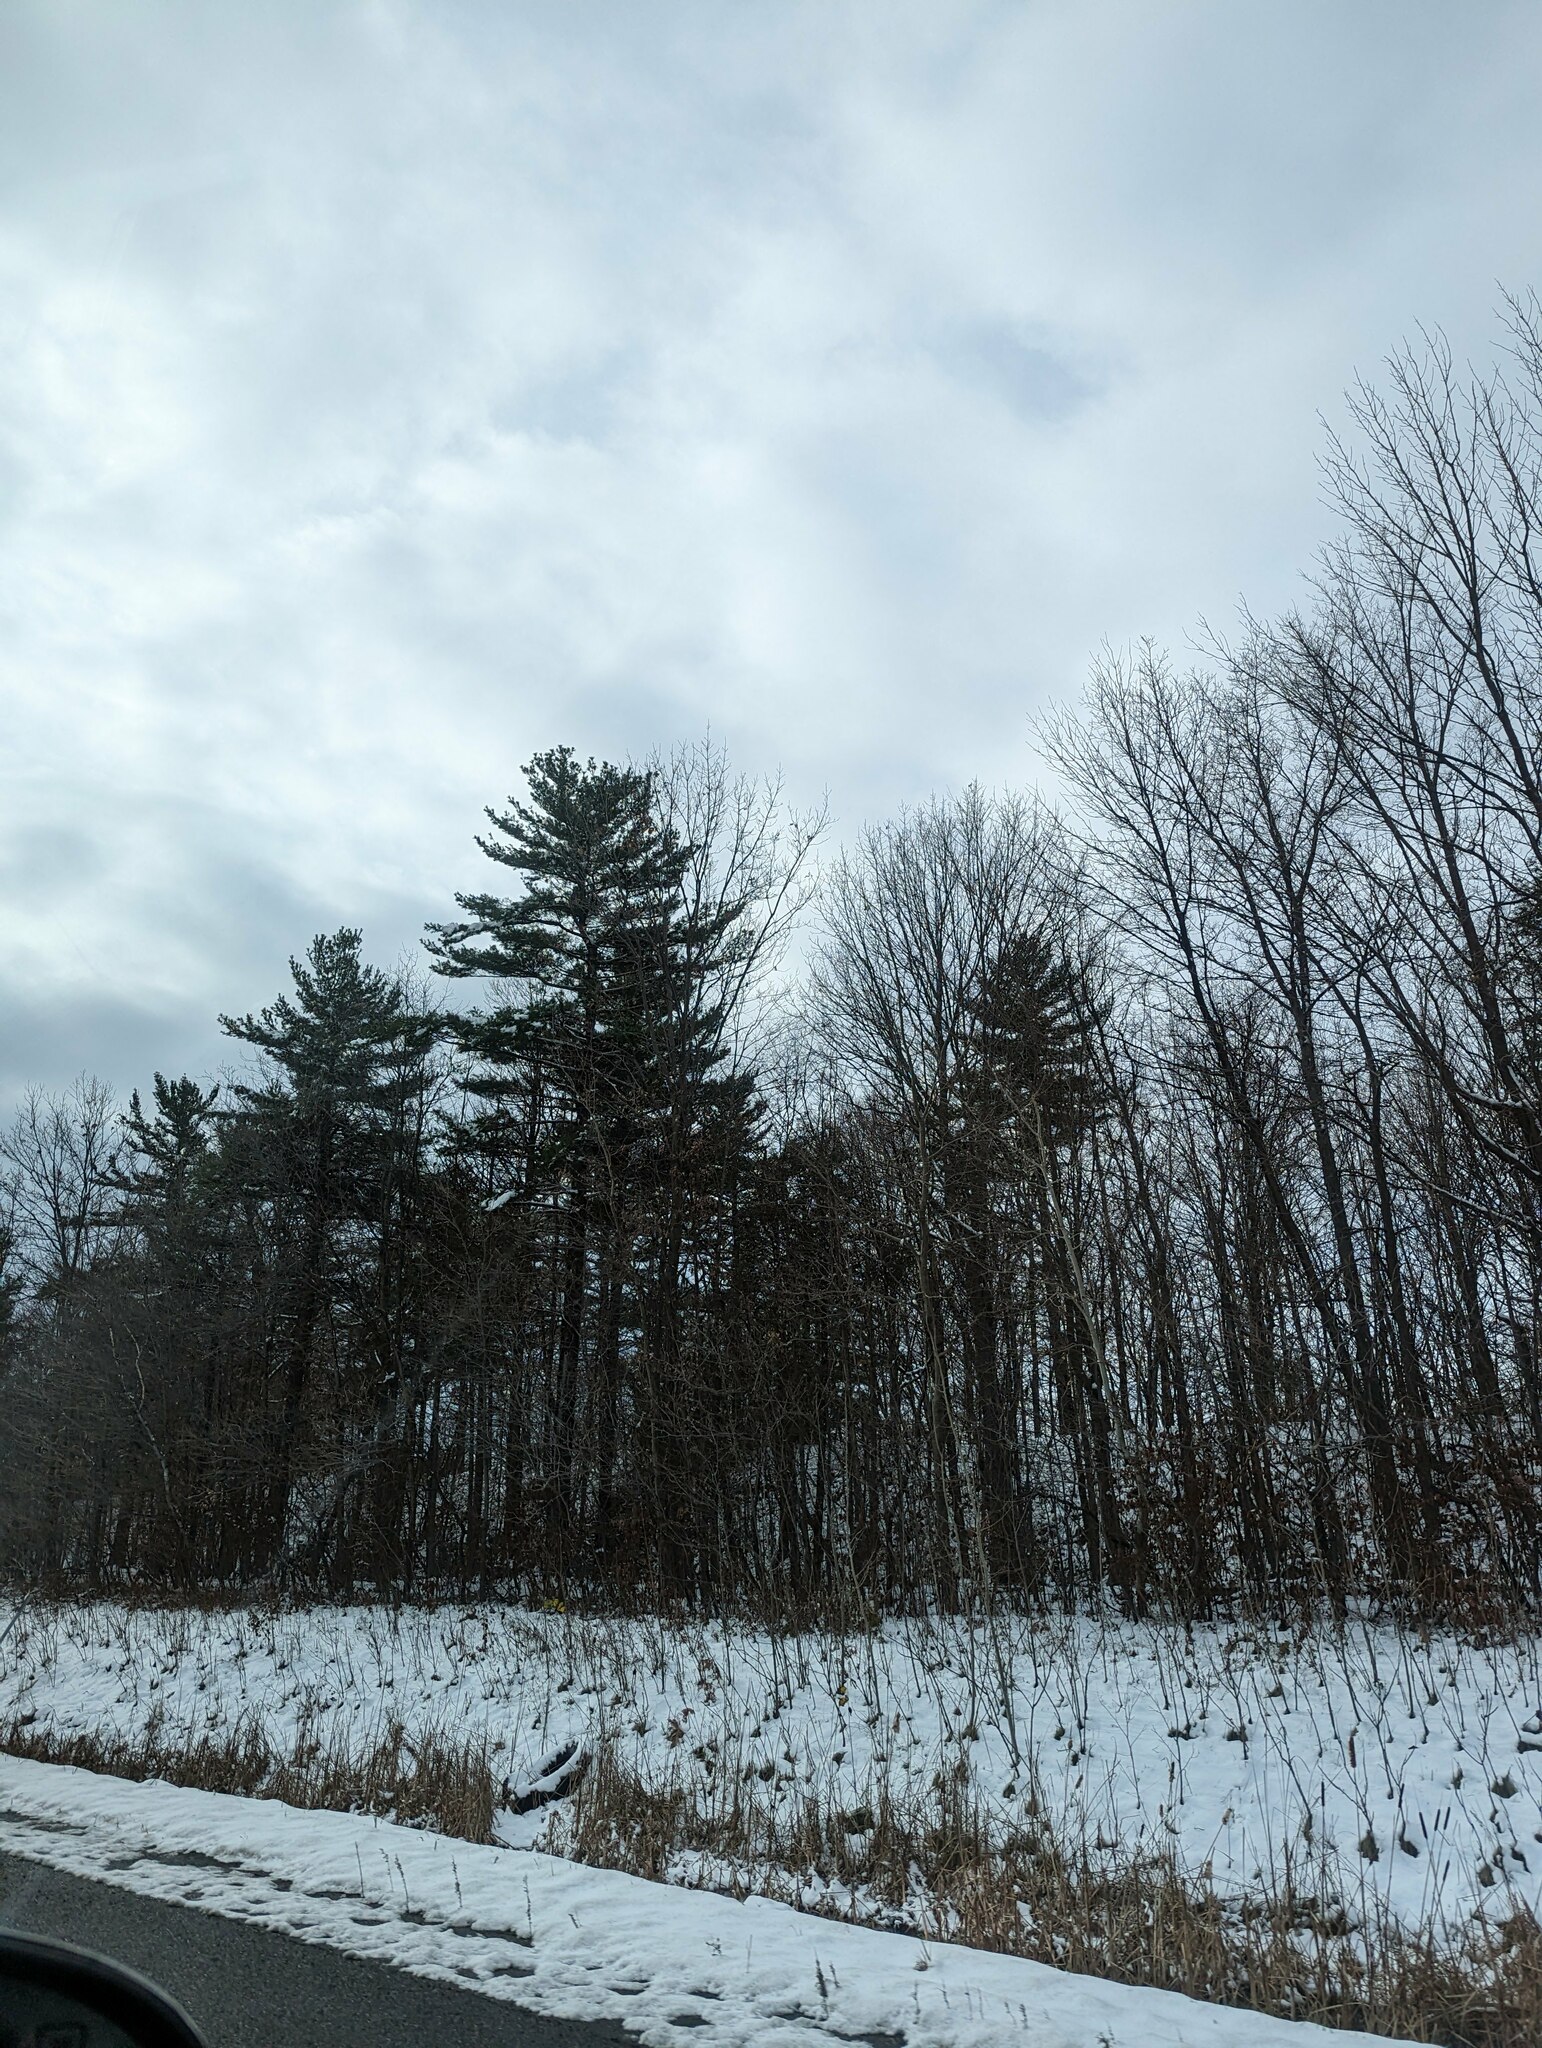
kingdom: Plantae
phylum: Tracheophyta
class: Pinopsida
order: Pinales
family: Pinaceae
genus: Pinus
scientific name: Pinus strobus
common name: Weymouth pine
